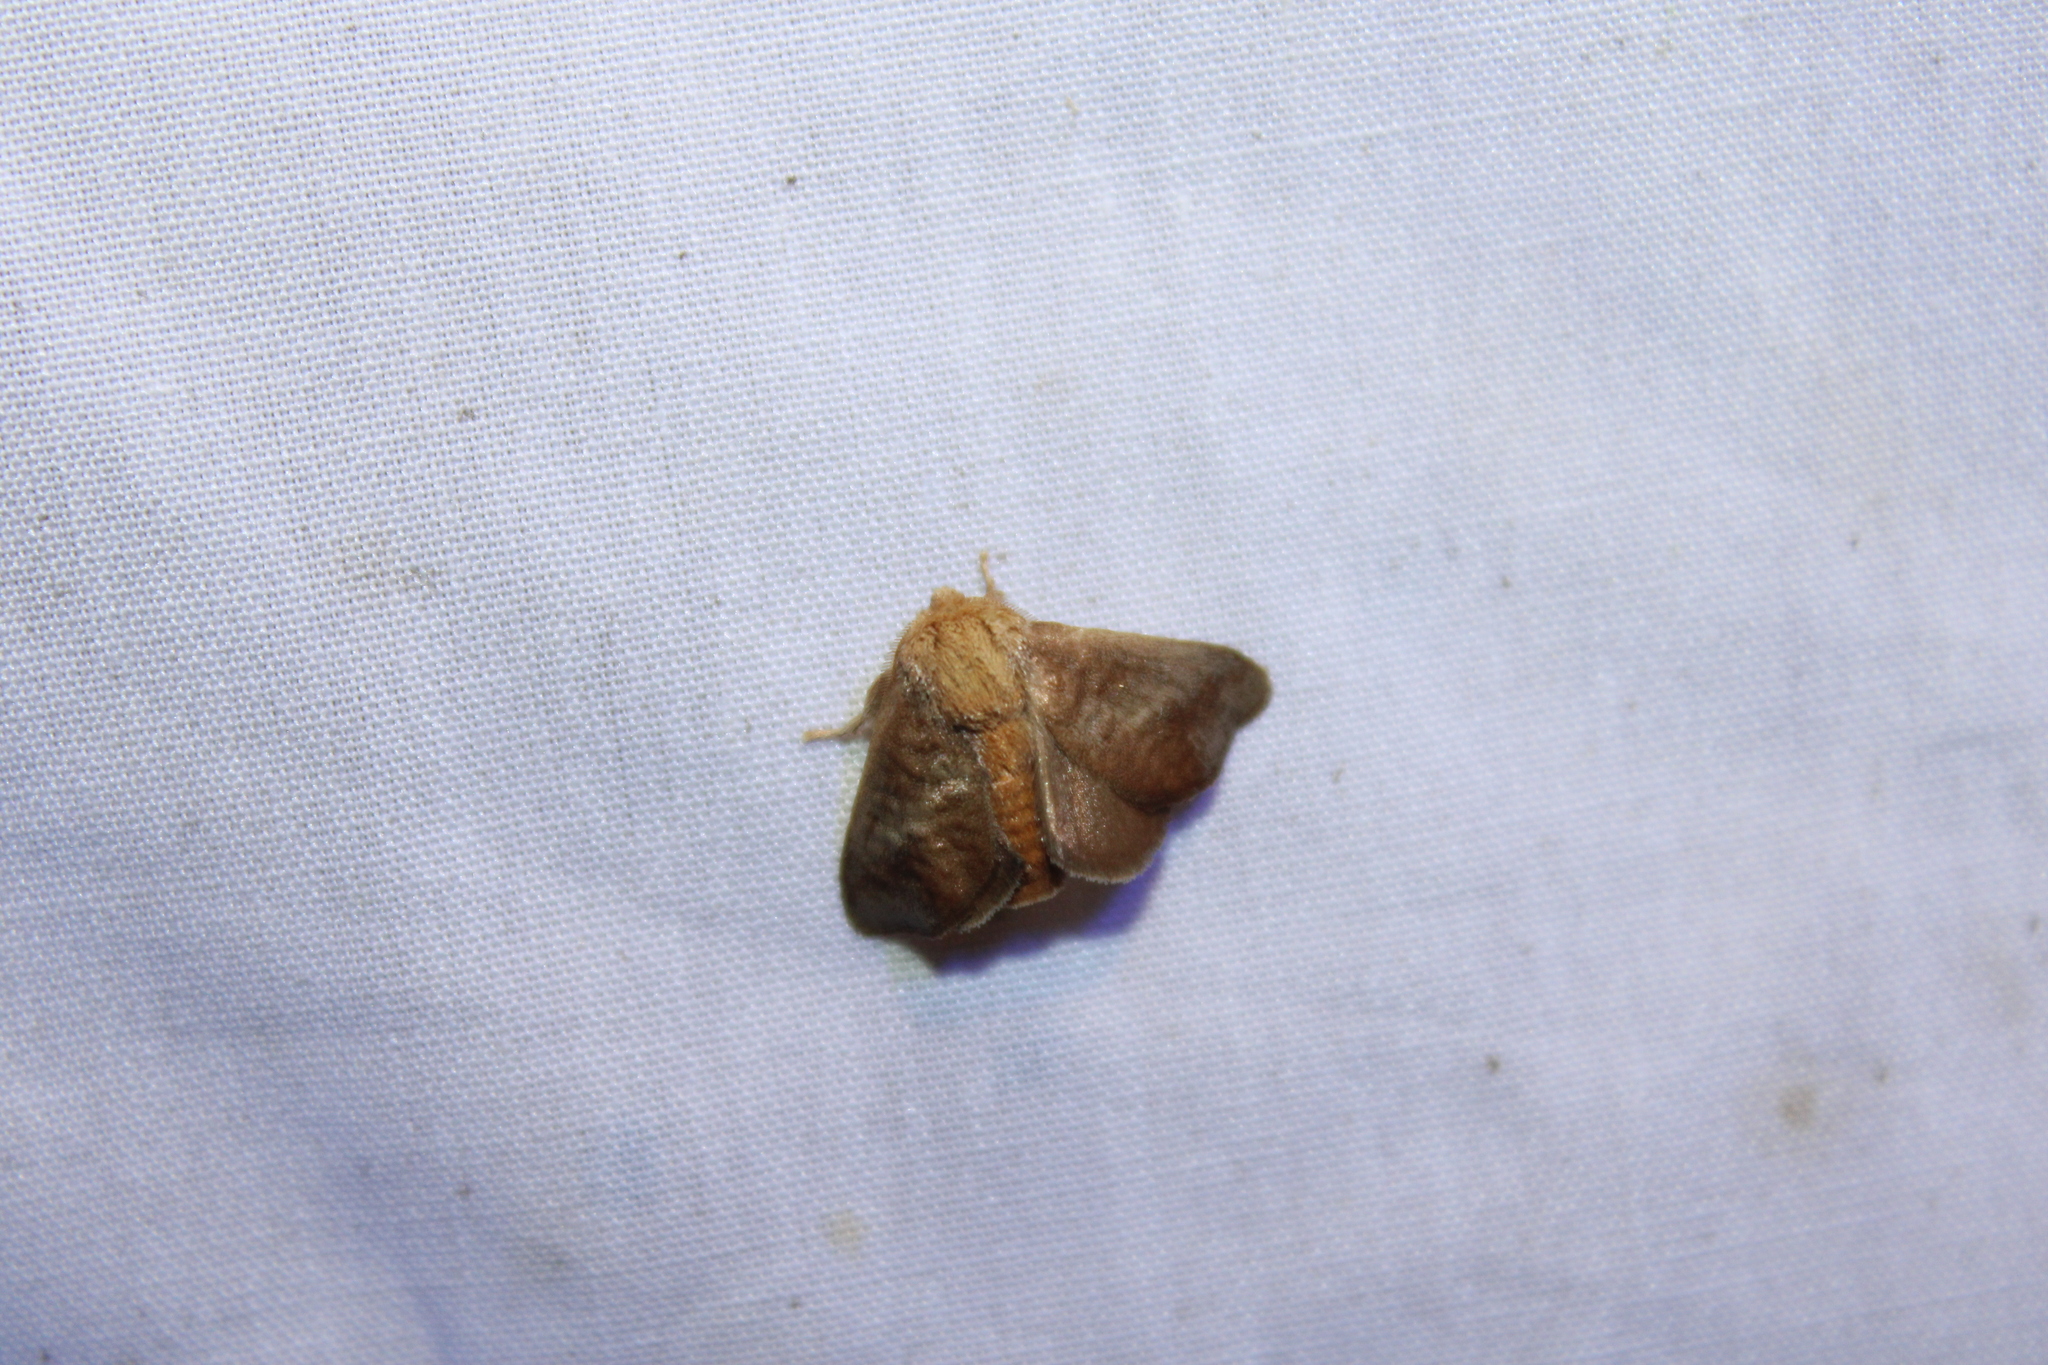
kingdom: Animalia
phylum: Arthropoda
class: Insecta
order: Lepidoptera
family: Limacodidae
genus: Isa
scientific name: Isa textula
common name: Crowned slug moth
